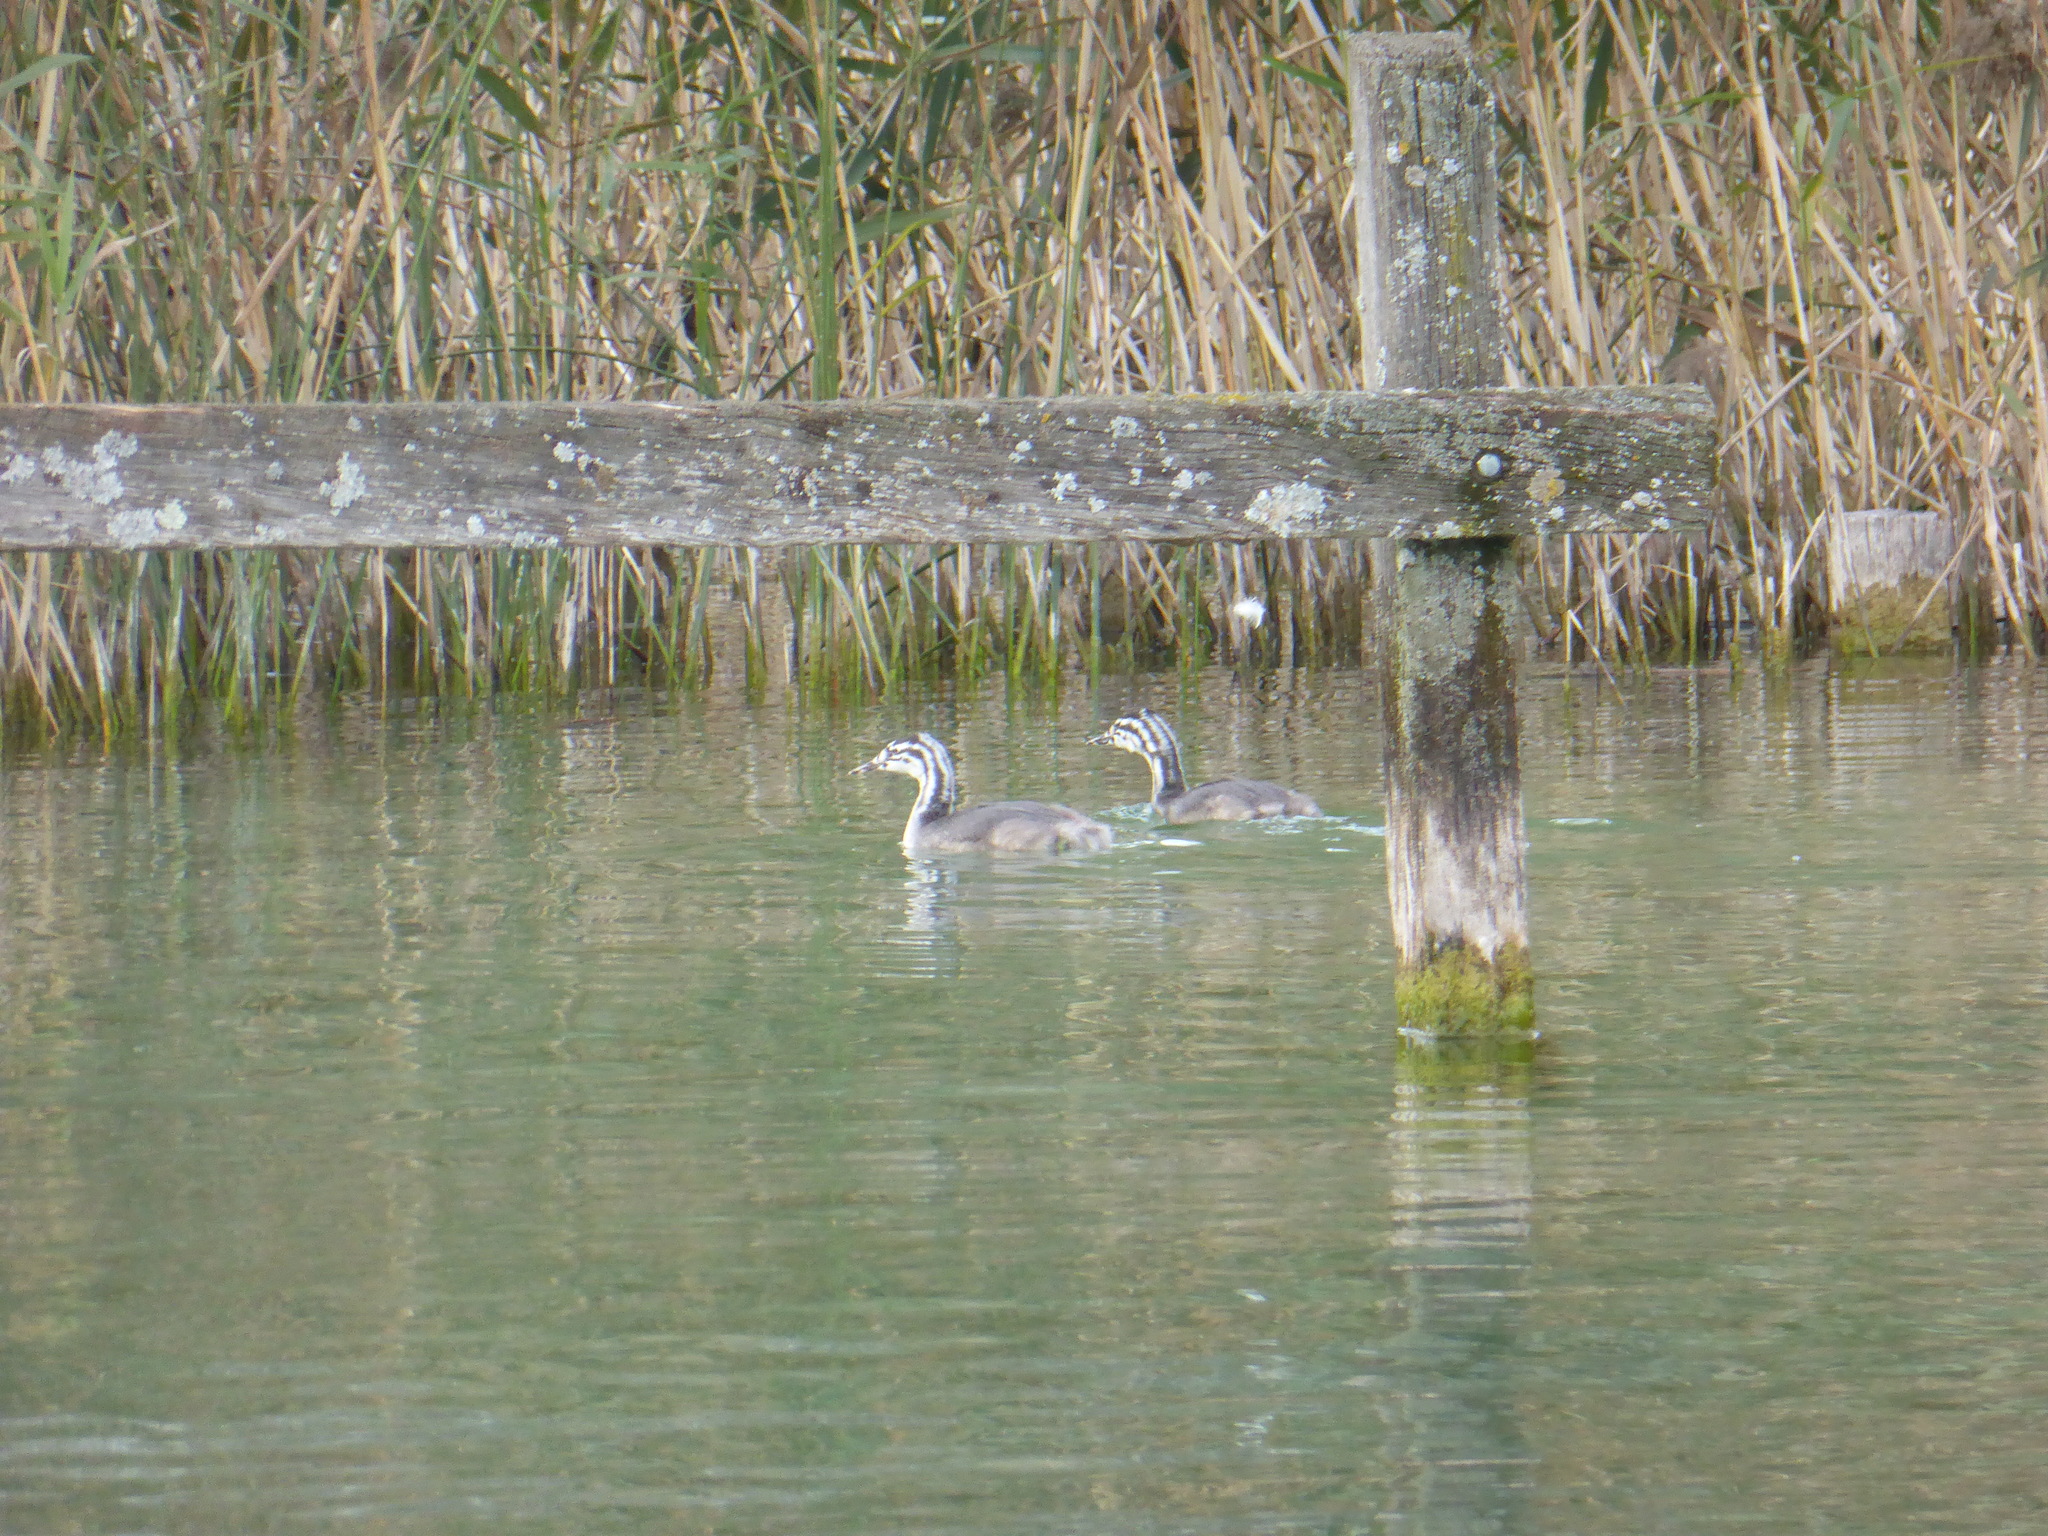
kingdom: Animalia
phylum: Chordata
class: Aves
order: Podicipediformes
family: Podicipedidae
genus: Podiceps
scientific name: Podiceps cristatus
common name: Great crested grebe
